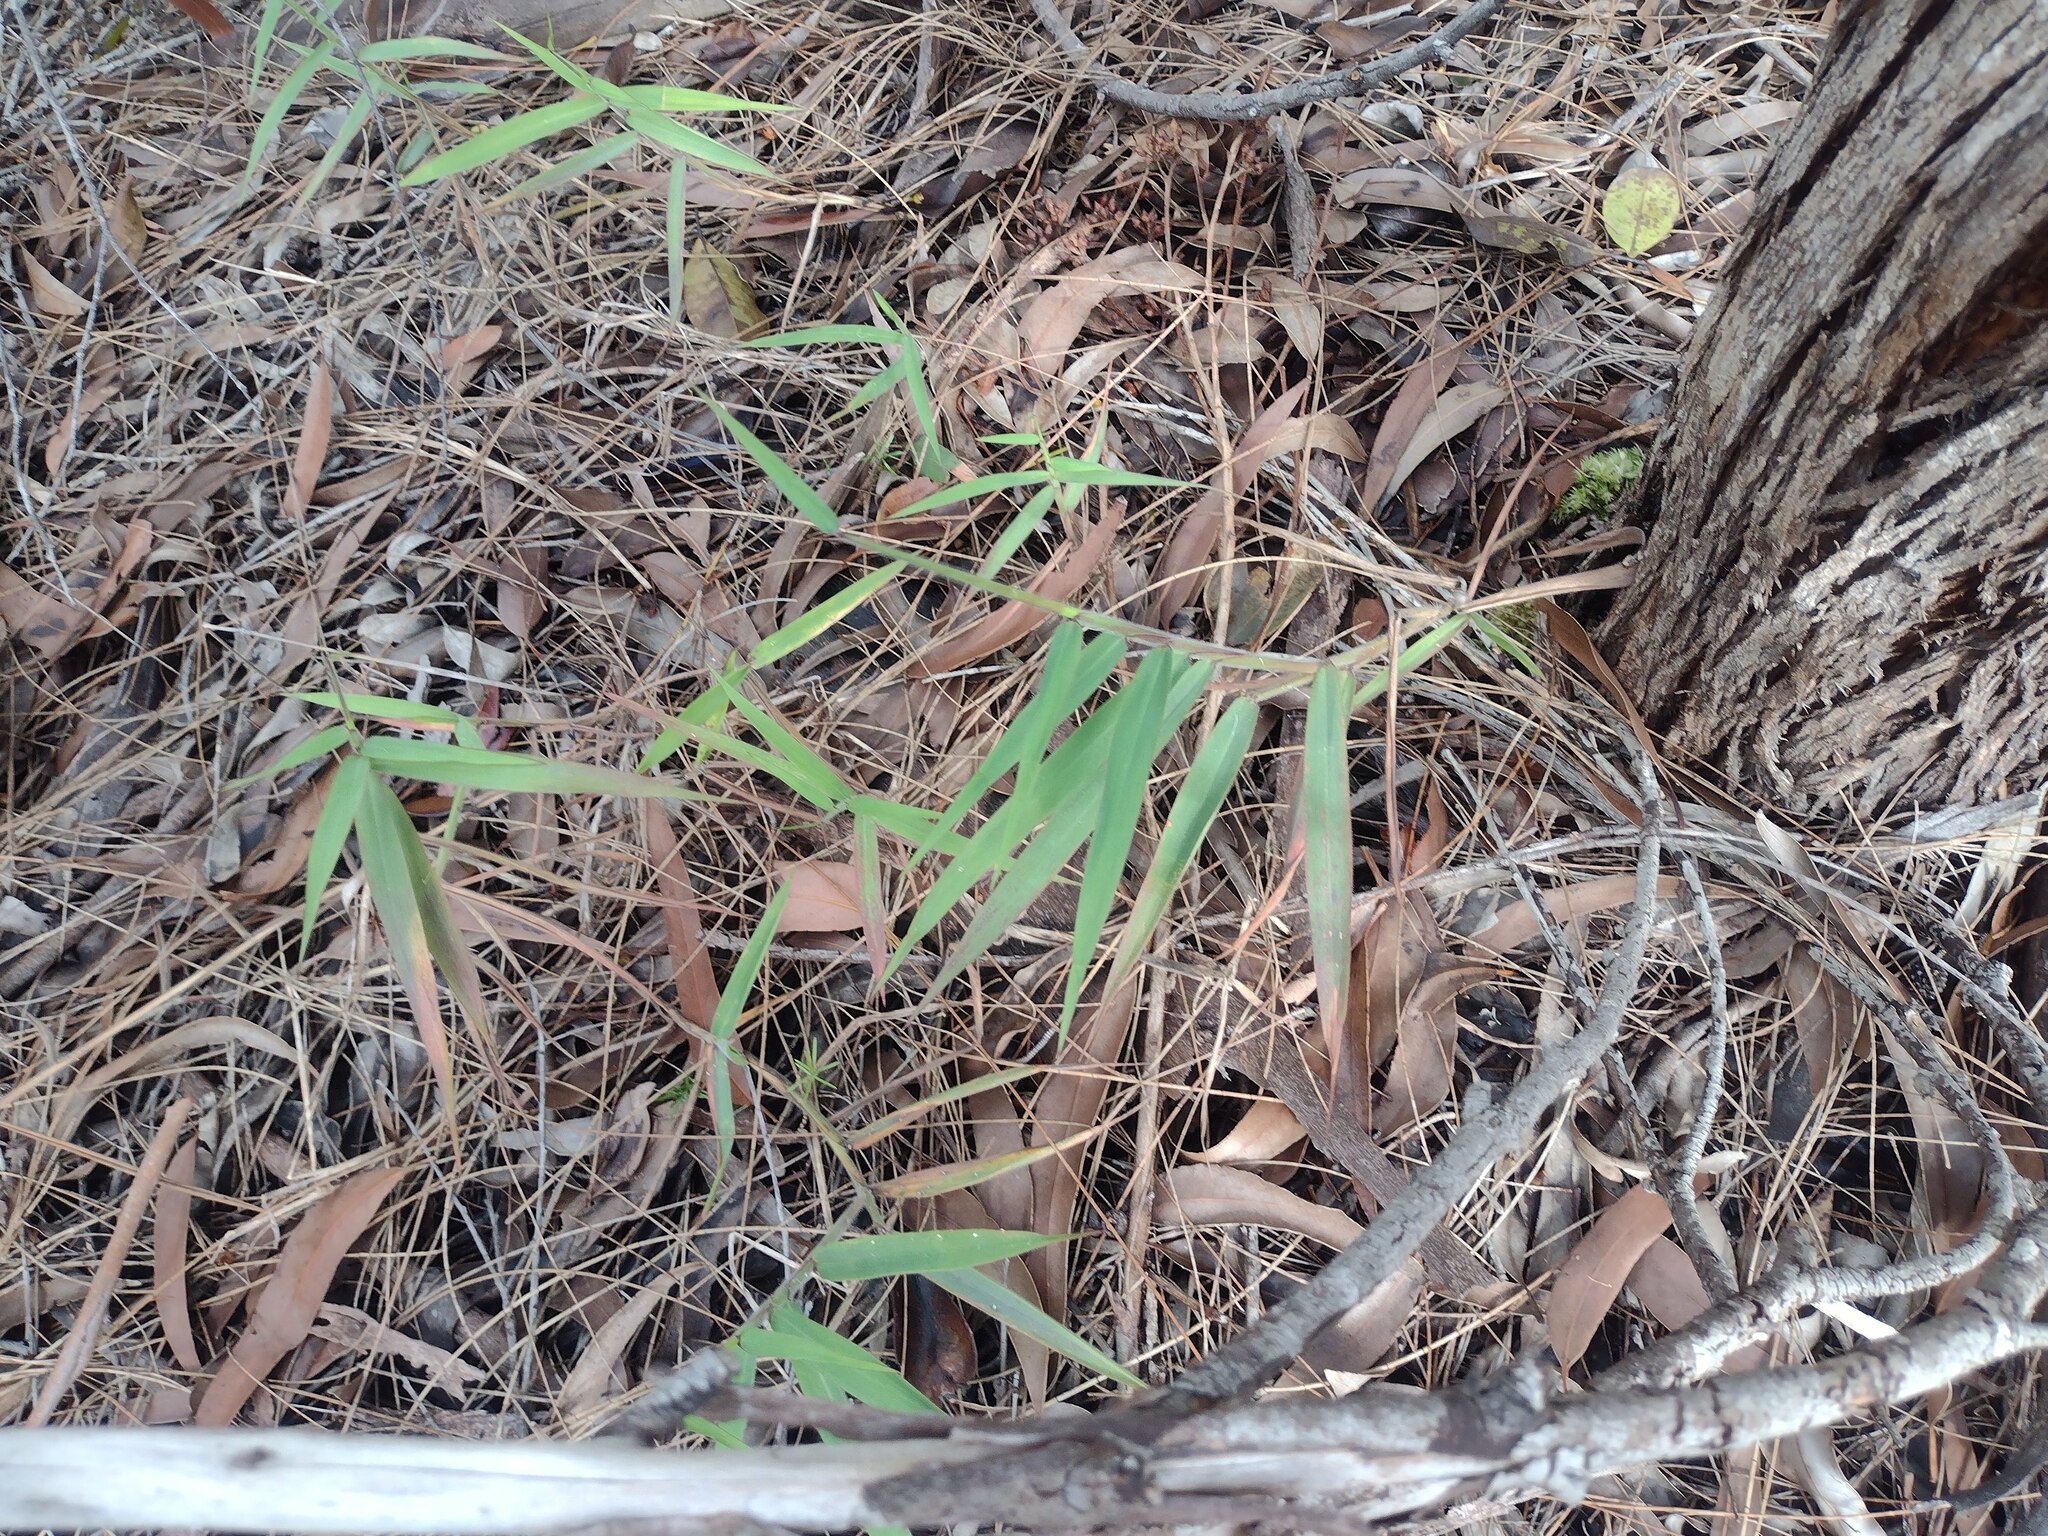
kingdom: Plantae
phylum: Tracheophyta
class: Liliopsida
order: Poales
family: Poaceae
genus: Melinis
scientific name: Melinis minutiflora
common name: Molassesgrass
